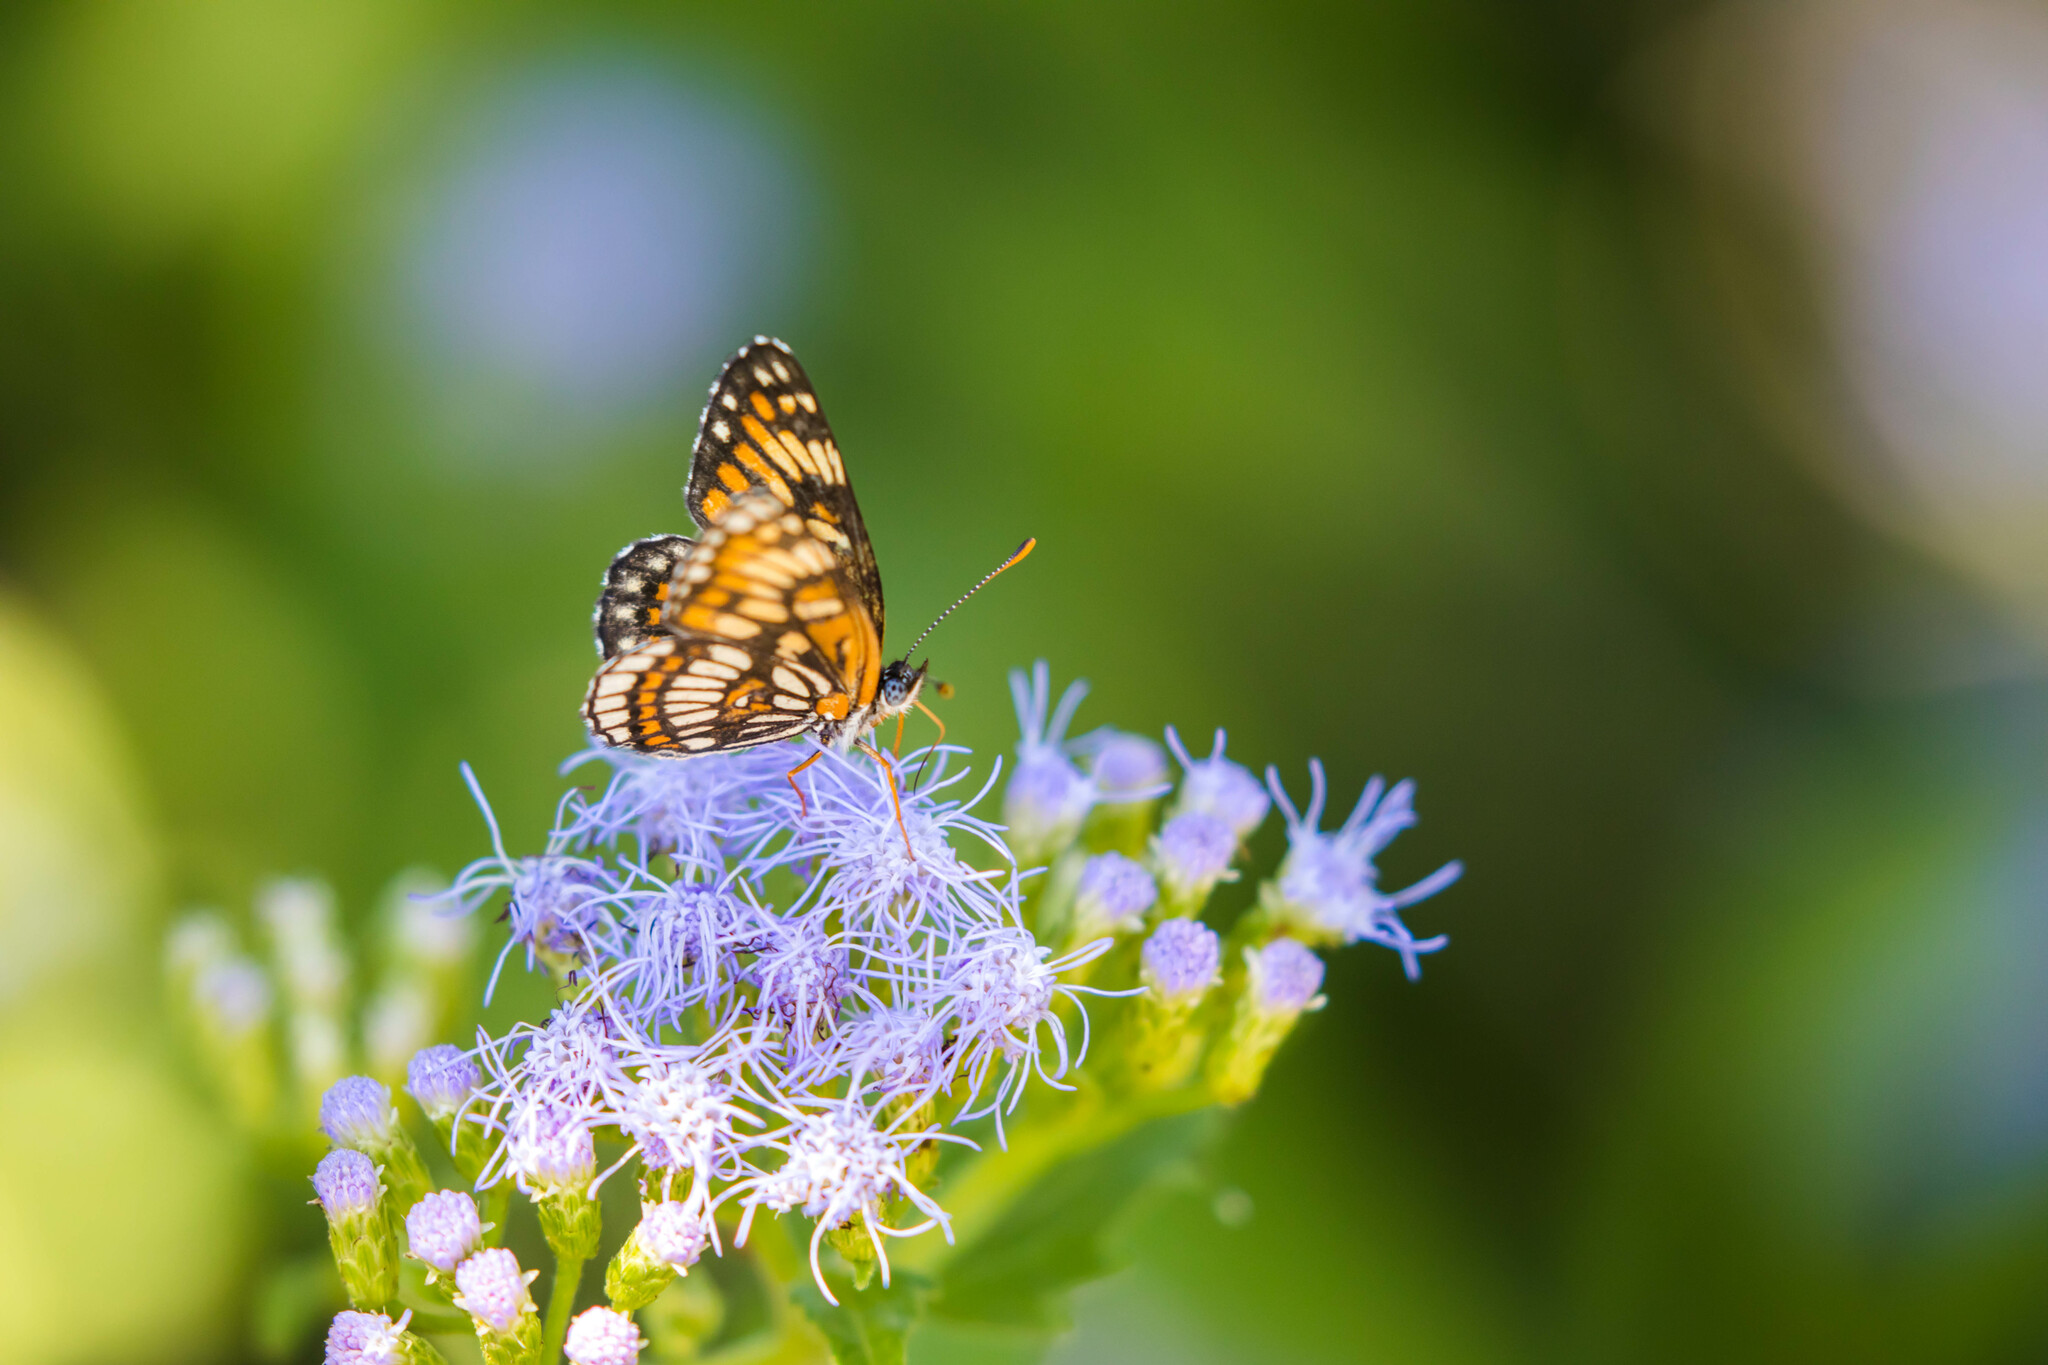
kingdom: Animalia
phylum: Arthropoda
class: Insecta
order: Lepidoptera
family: Nymphalidae
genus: Thessalia
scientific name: Thessalia theona
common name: Nymphalid moth
